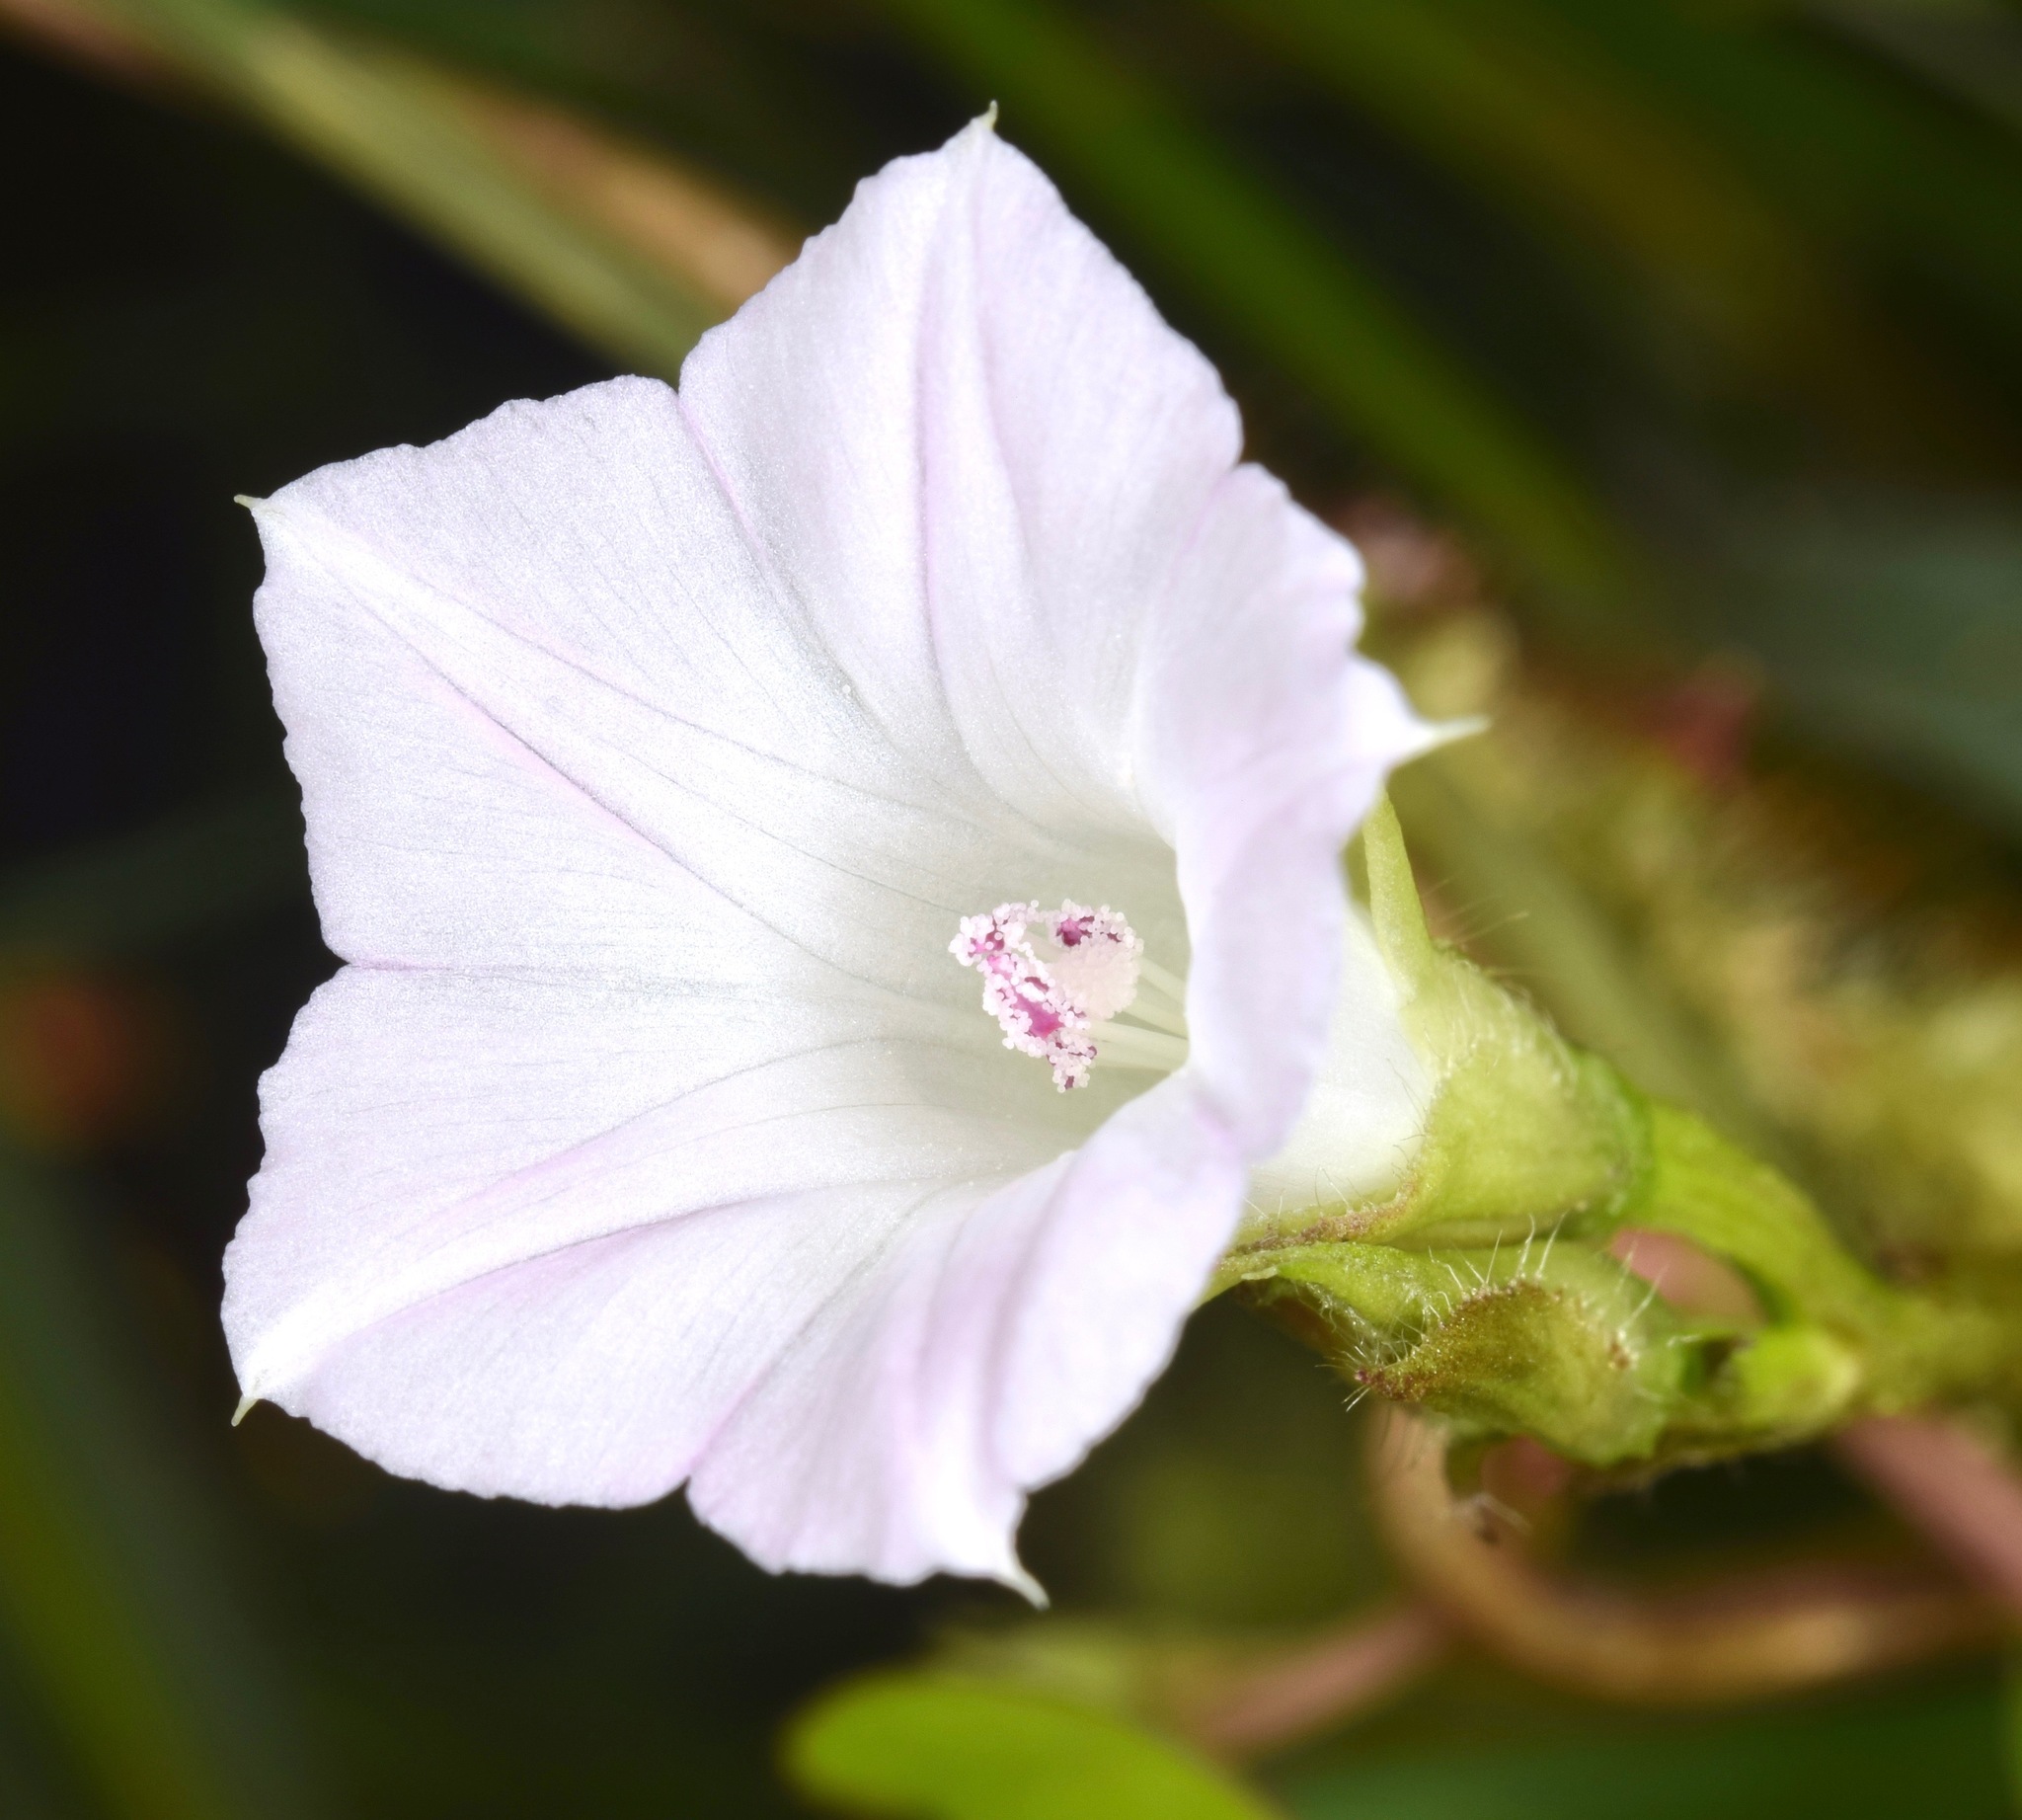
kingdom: Plantae
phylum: Tracheophyta
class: Magnoliopsida
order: Solanales
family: Convolvulaceae
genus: Ipomoea
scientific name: Ipomoea lacunosa
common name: White morning-glory
